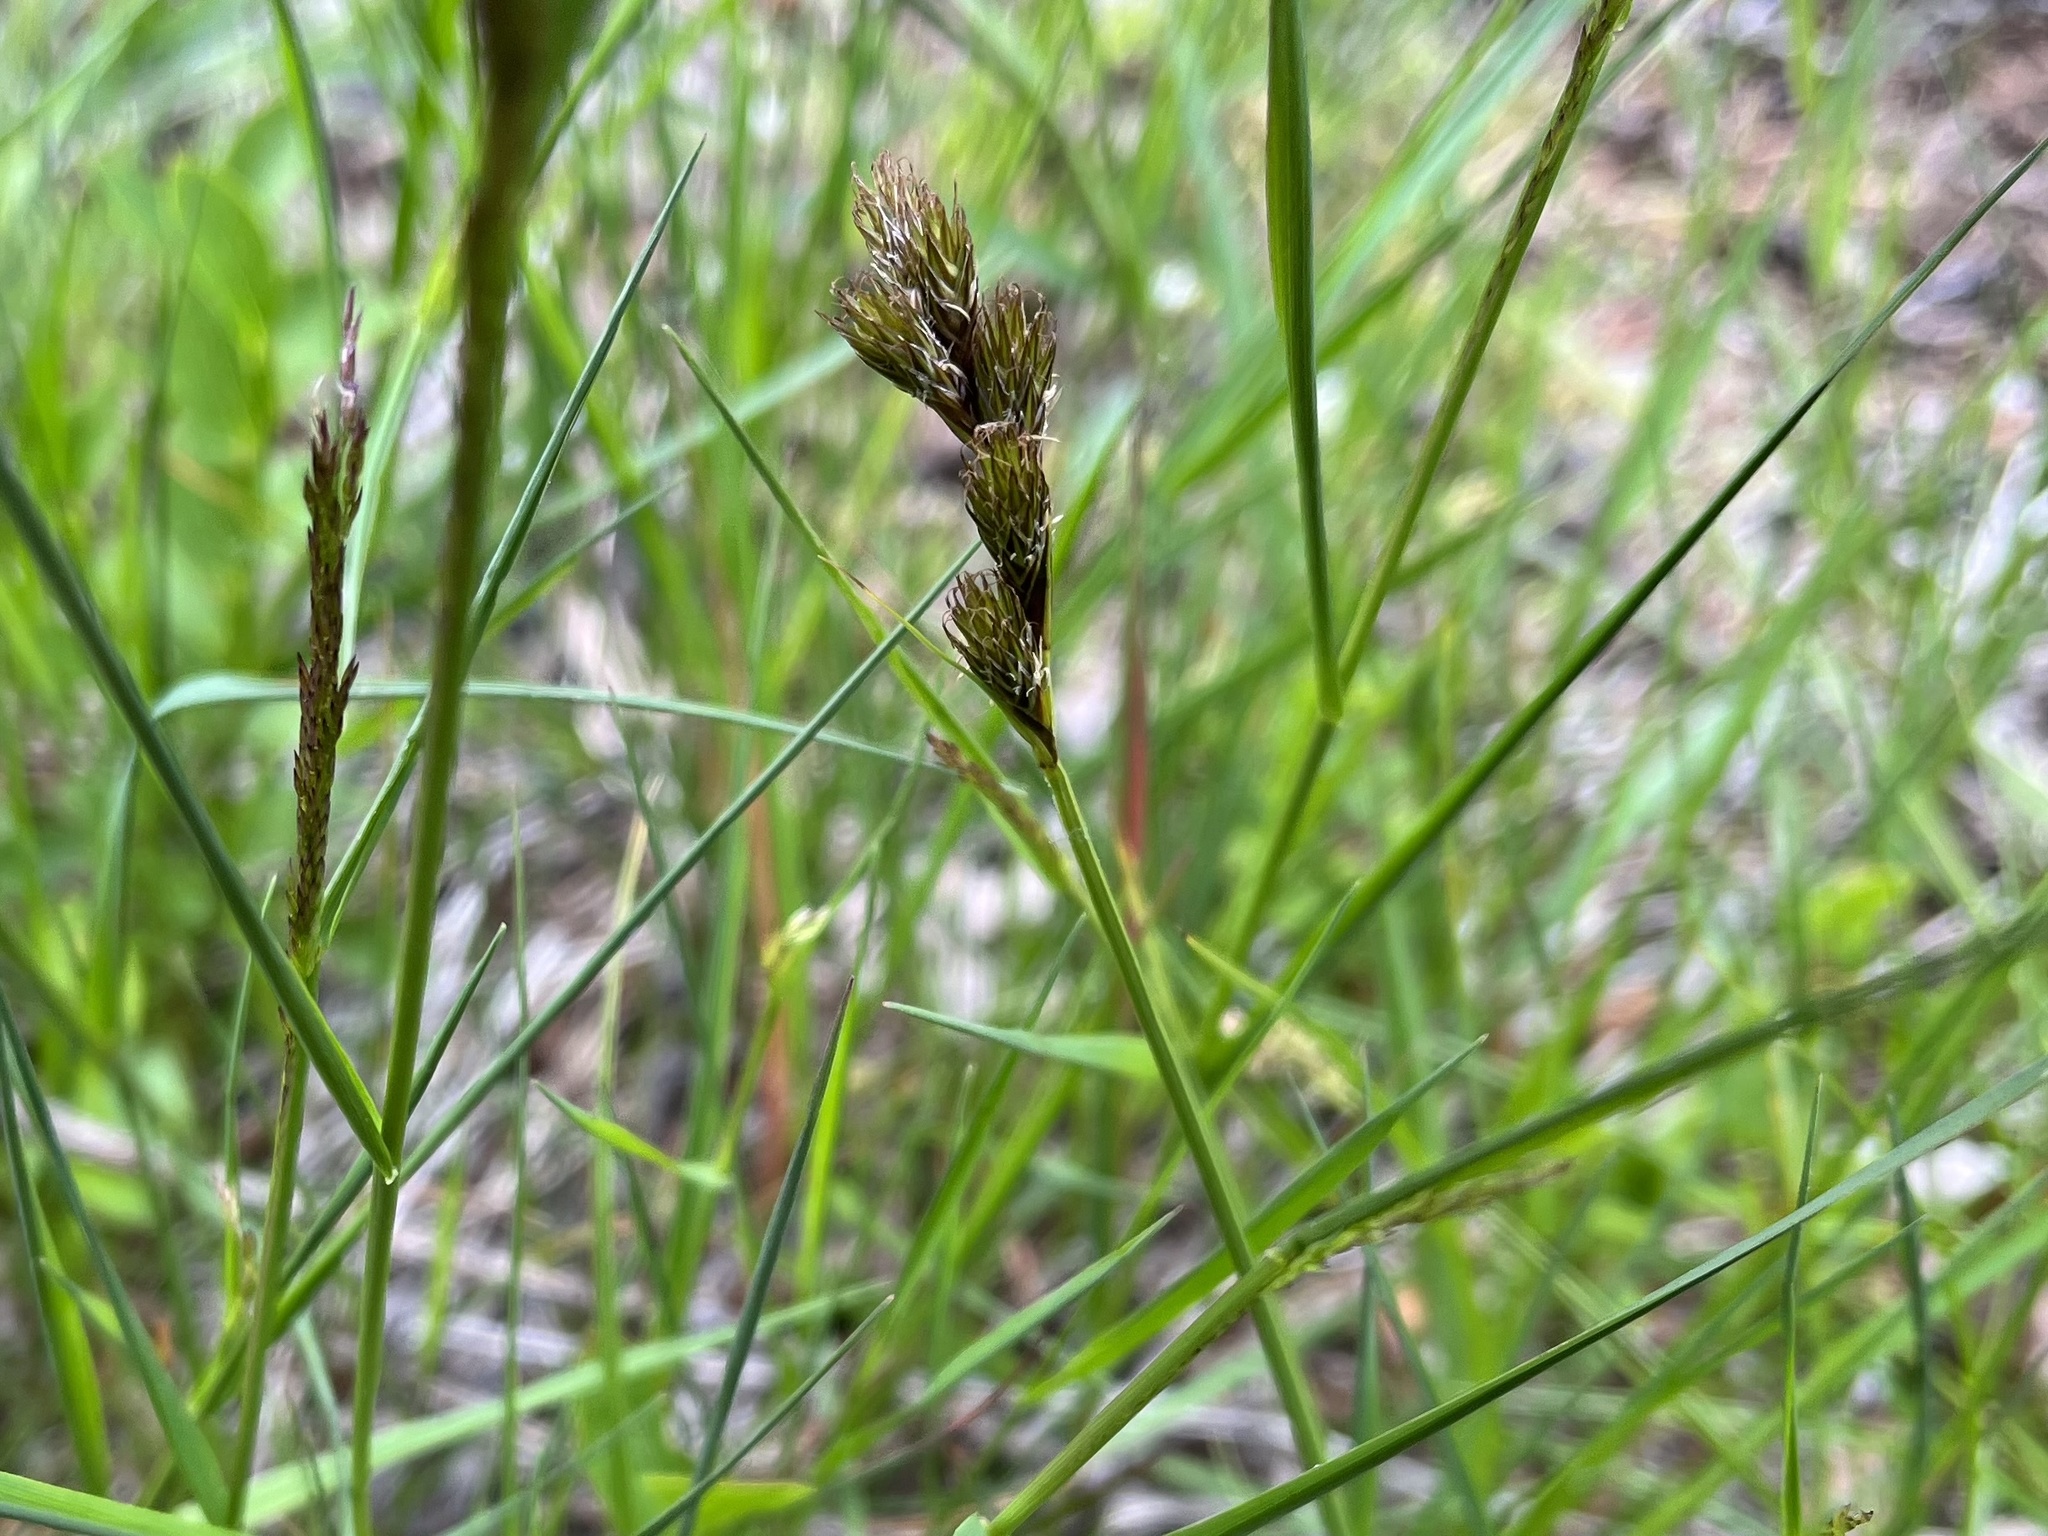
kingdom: Plantae
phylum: Tracheophyta
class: Liliopsida
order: Poales
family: Cyperaceae
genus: Carex
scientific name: Carex leporina
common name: Oval sedge
